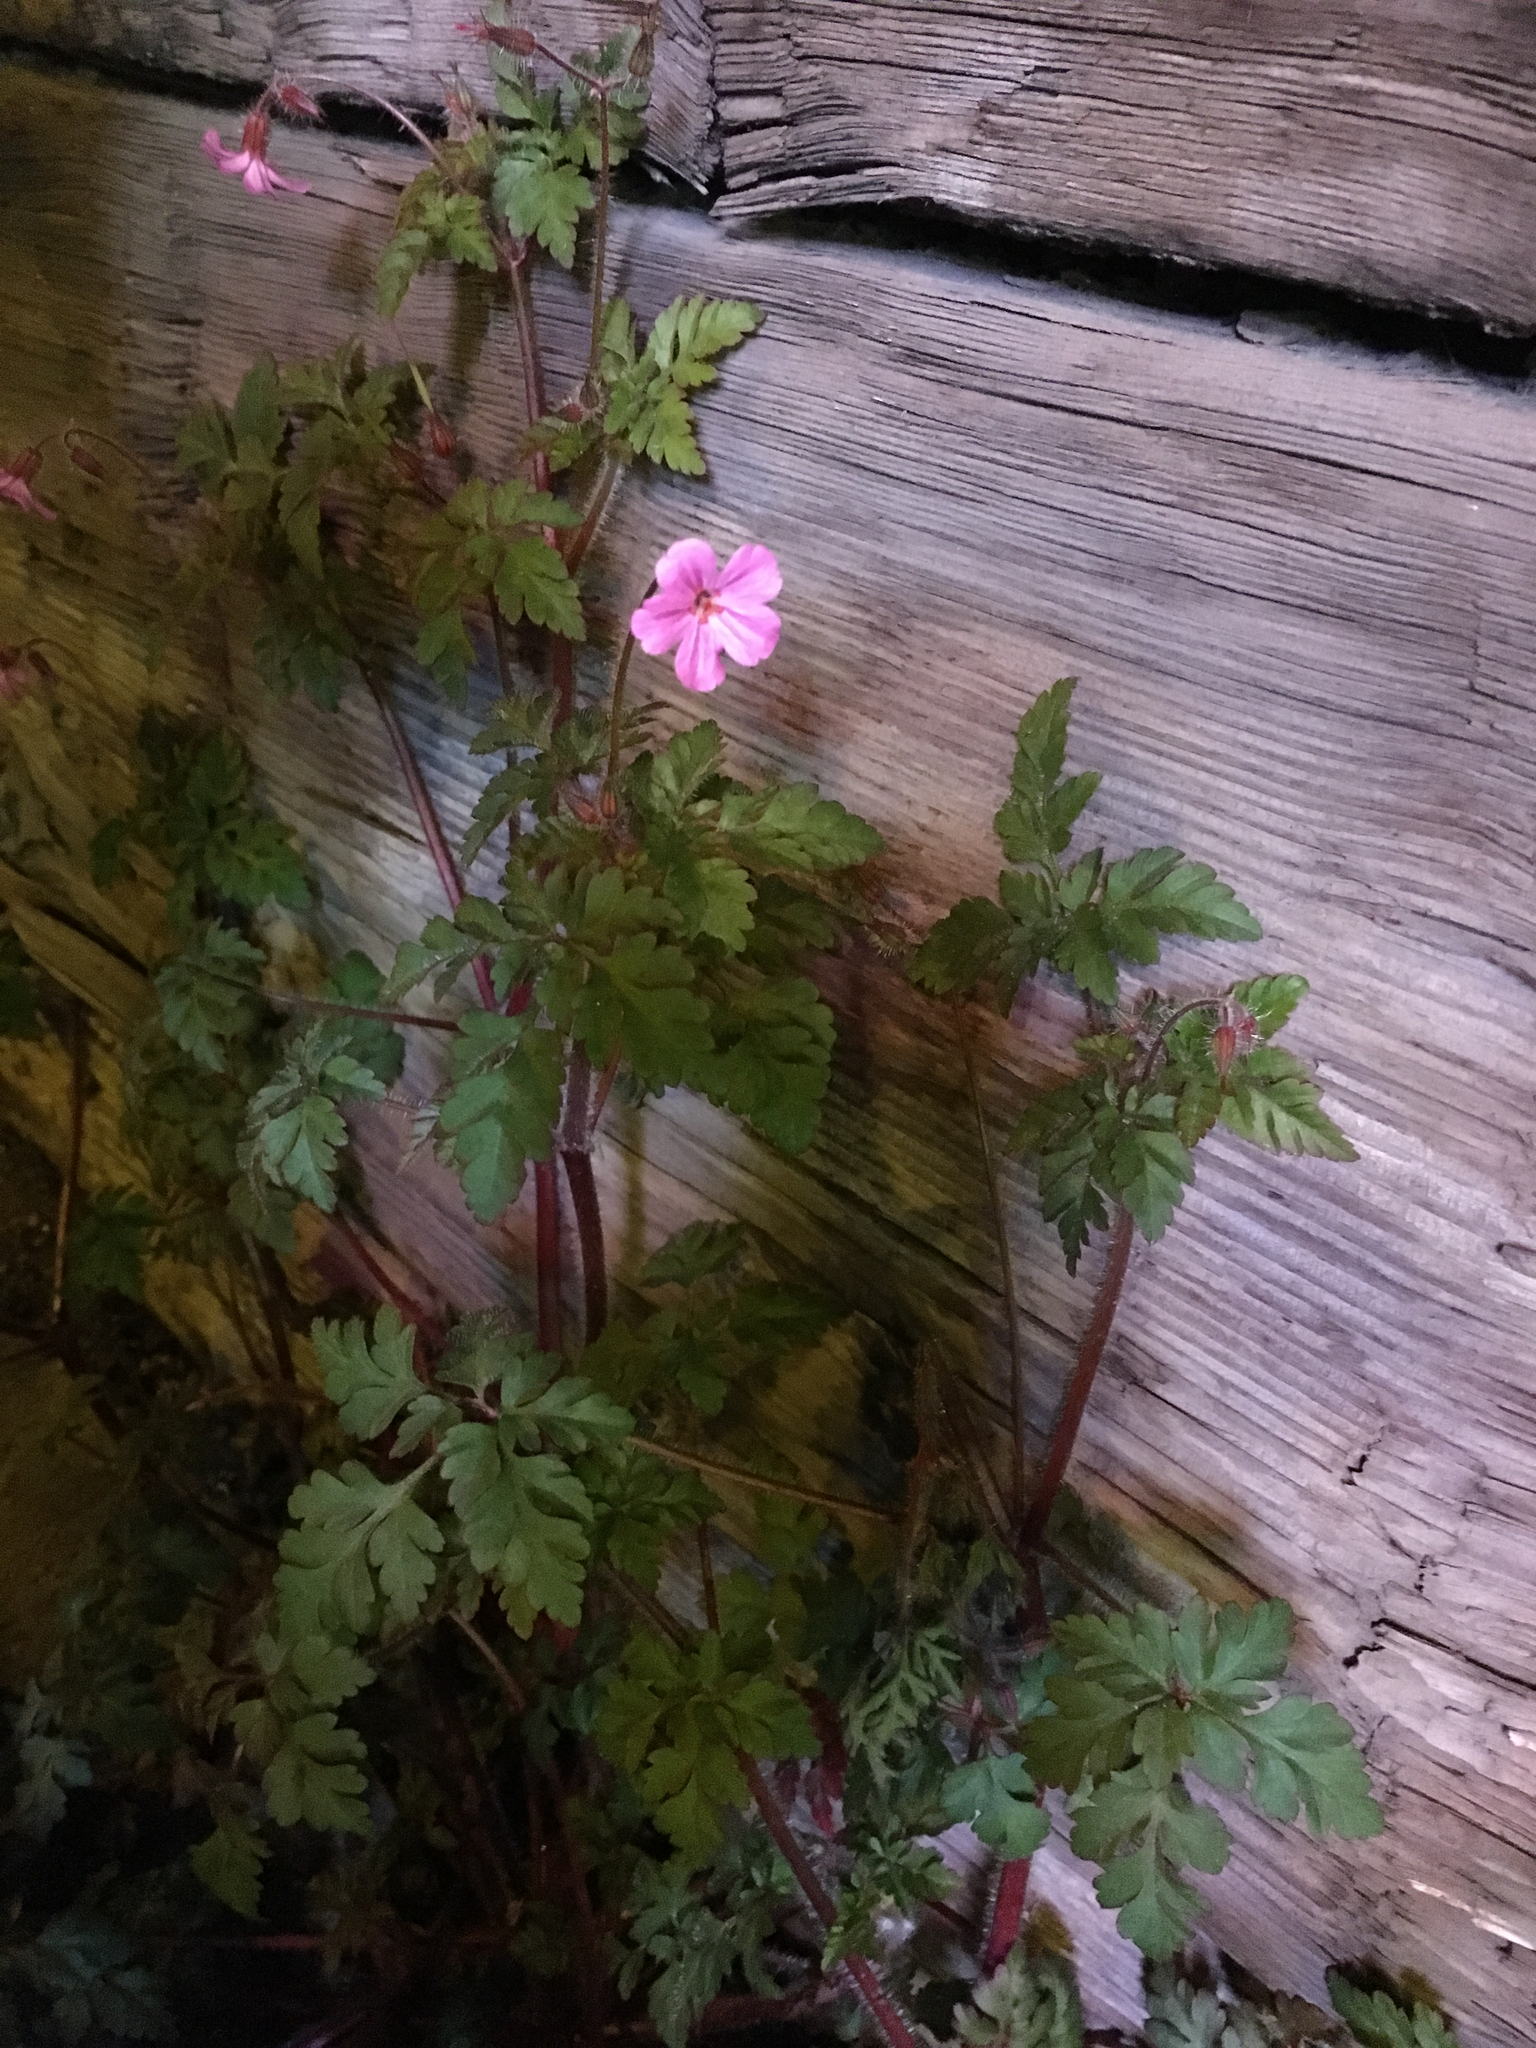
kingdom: Plantae
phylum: Tracheophyta
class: Magnoliopsida
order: Geraniales
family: Geraniaceae
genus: Geranium
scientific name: Geranium robertianum
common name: Herb-robert
